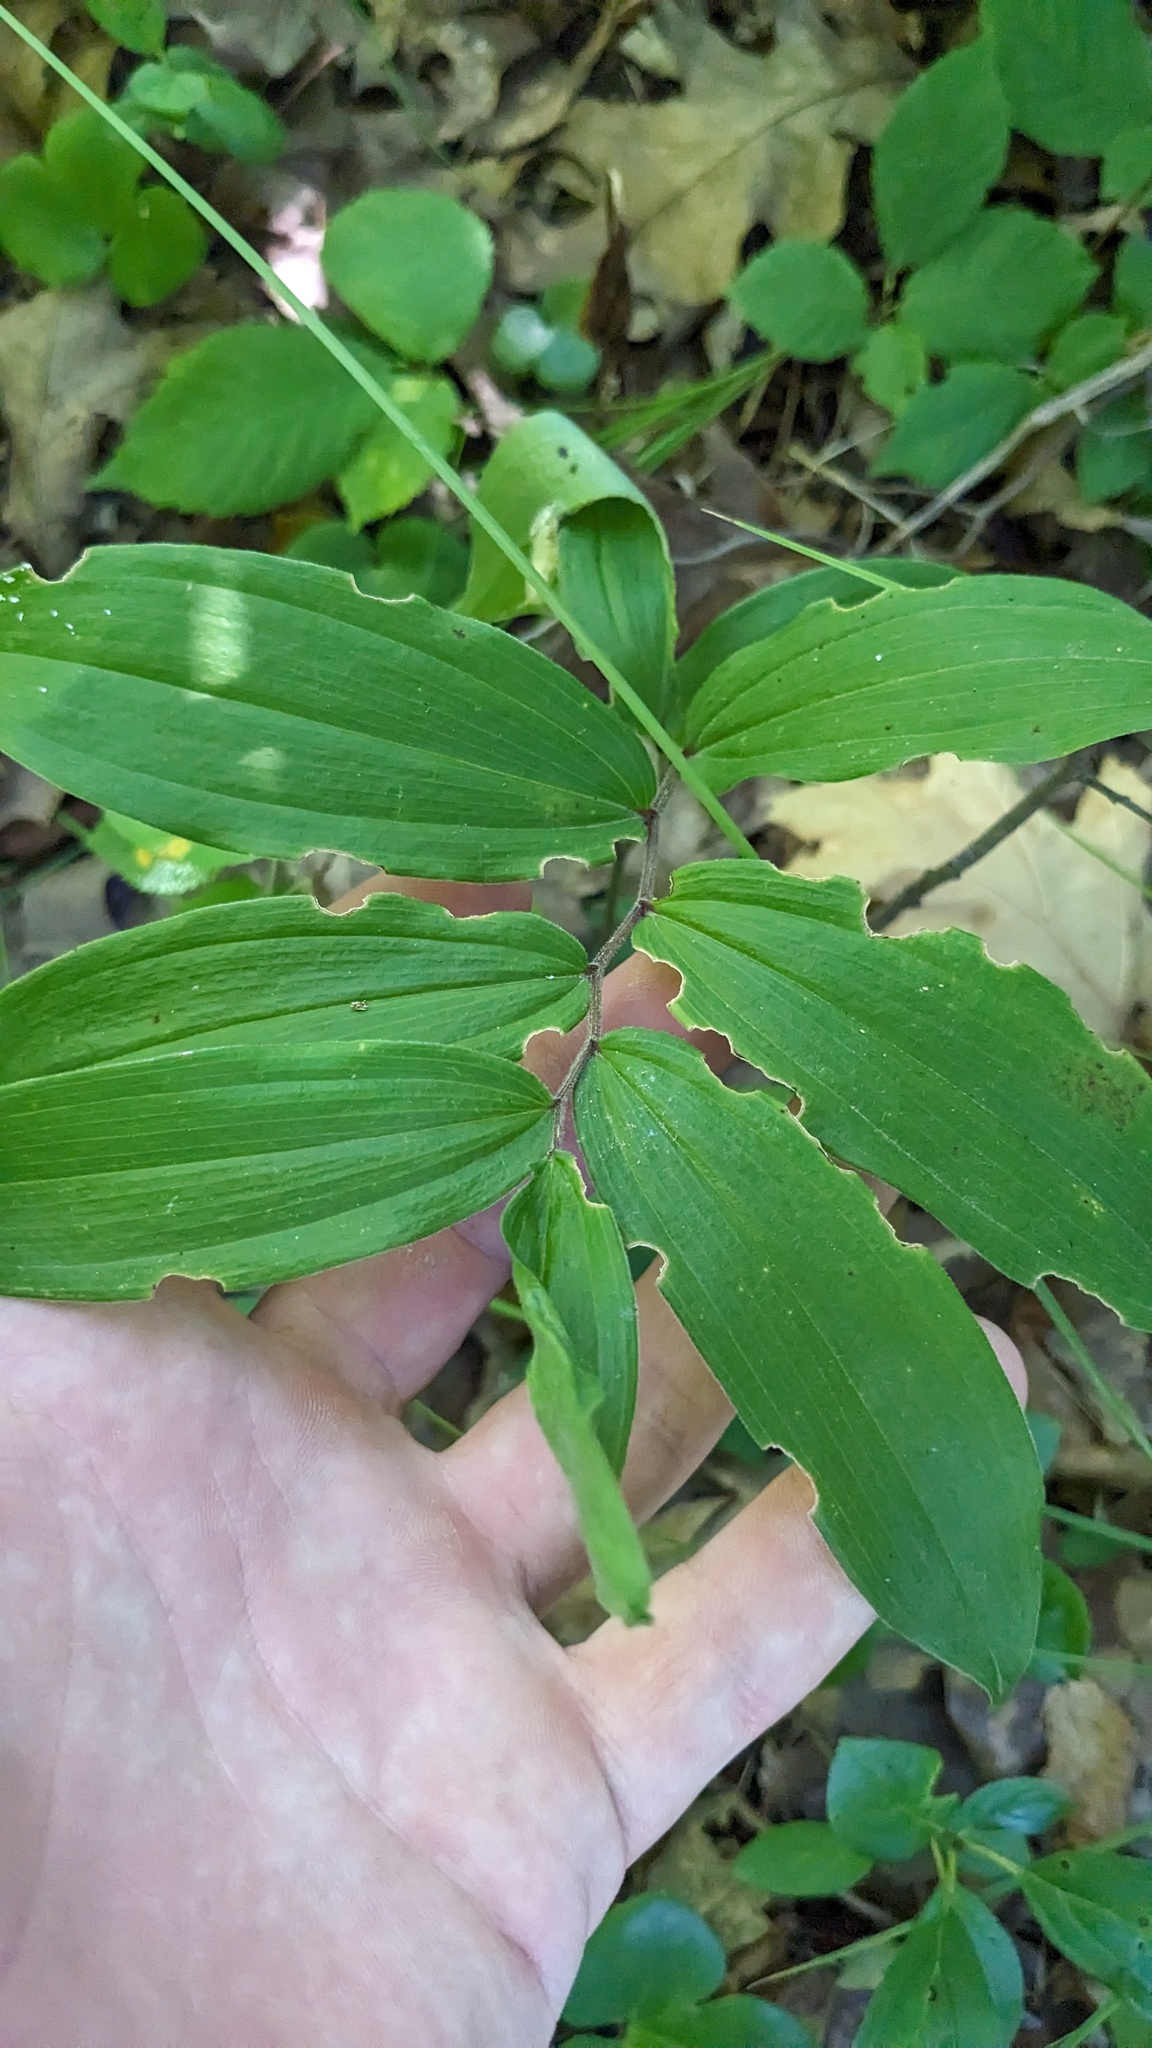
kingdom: Plantae
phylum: Tracheophyta
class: Liliopsida
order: Asparagales
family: Asparagaceae
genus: Maianthemum
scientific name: Maianthemum racemosum
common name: False spikenard
